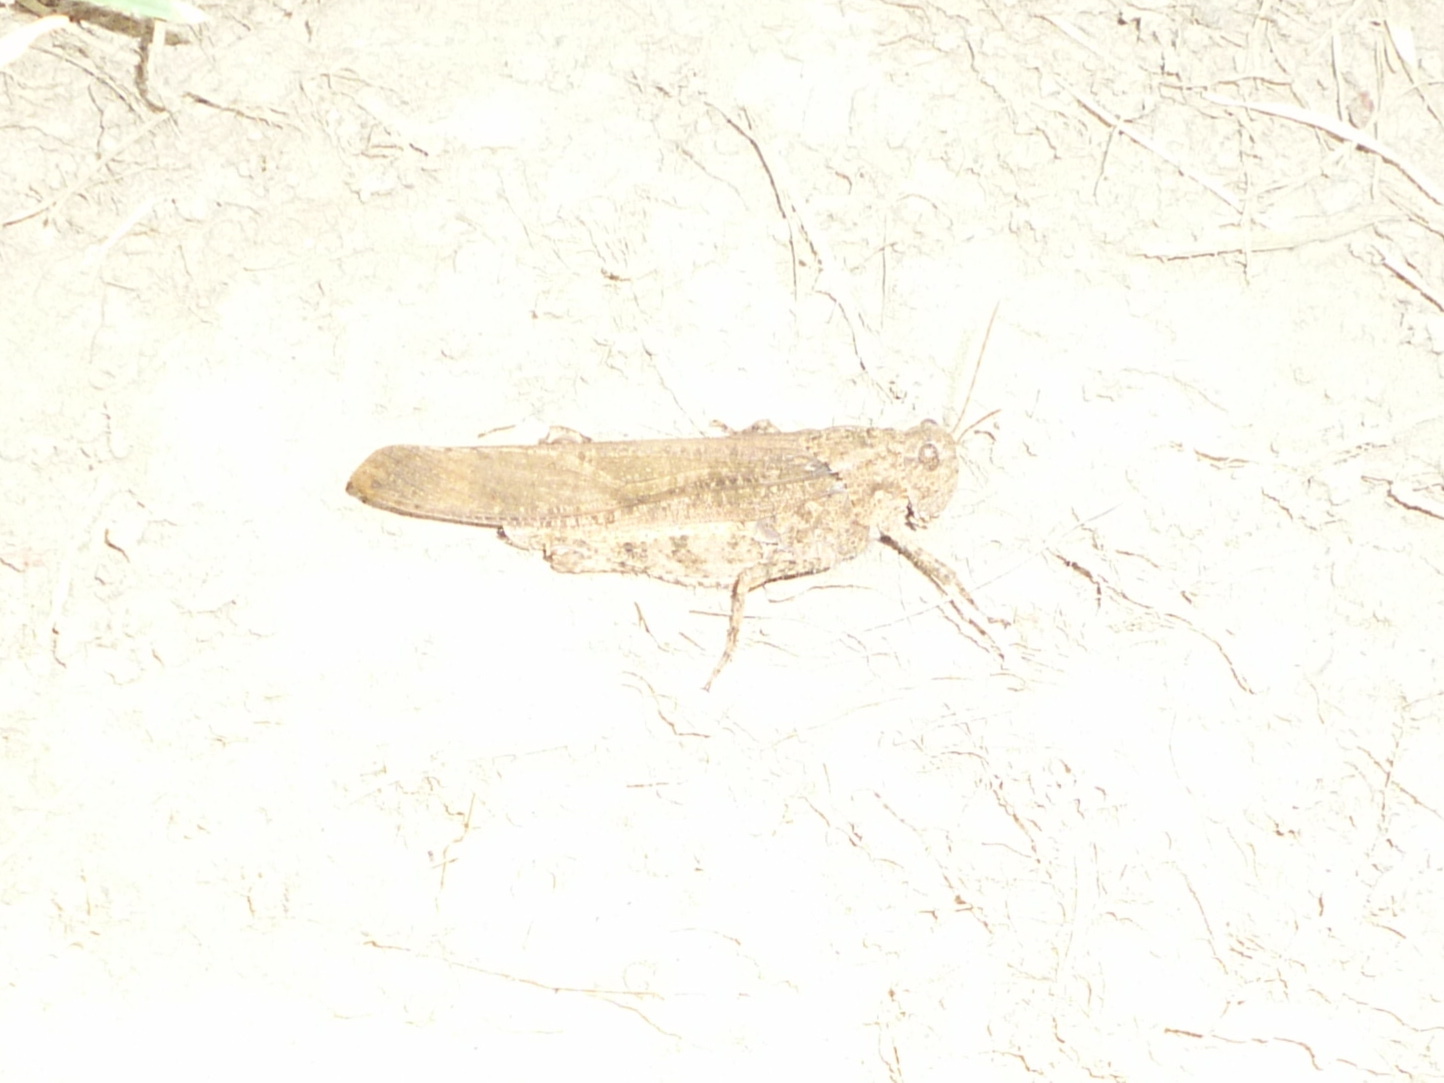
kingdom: Animalia
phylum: Arthropoda
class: Insecta
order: Orthoptera
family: Acrididae
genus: Dissosteira
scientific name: Dissosteira carolina
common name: Carolina grasshopper
